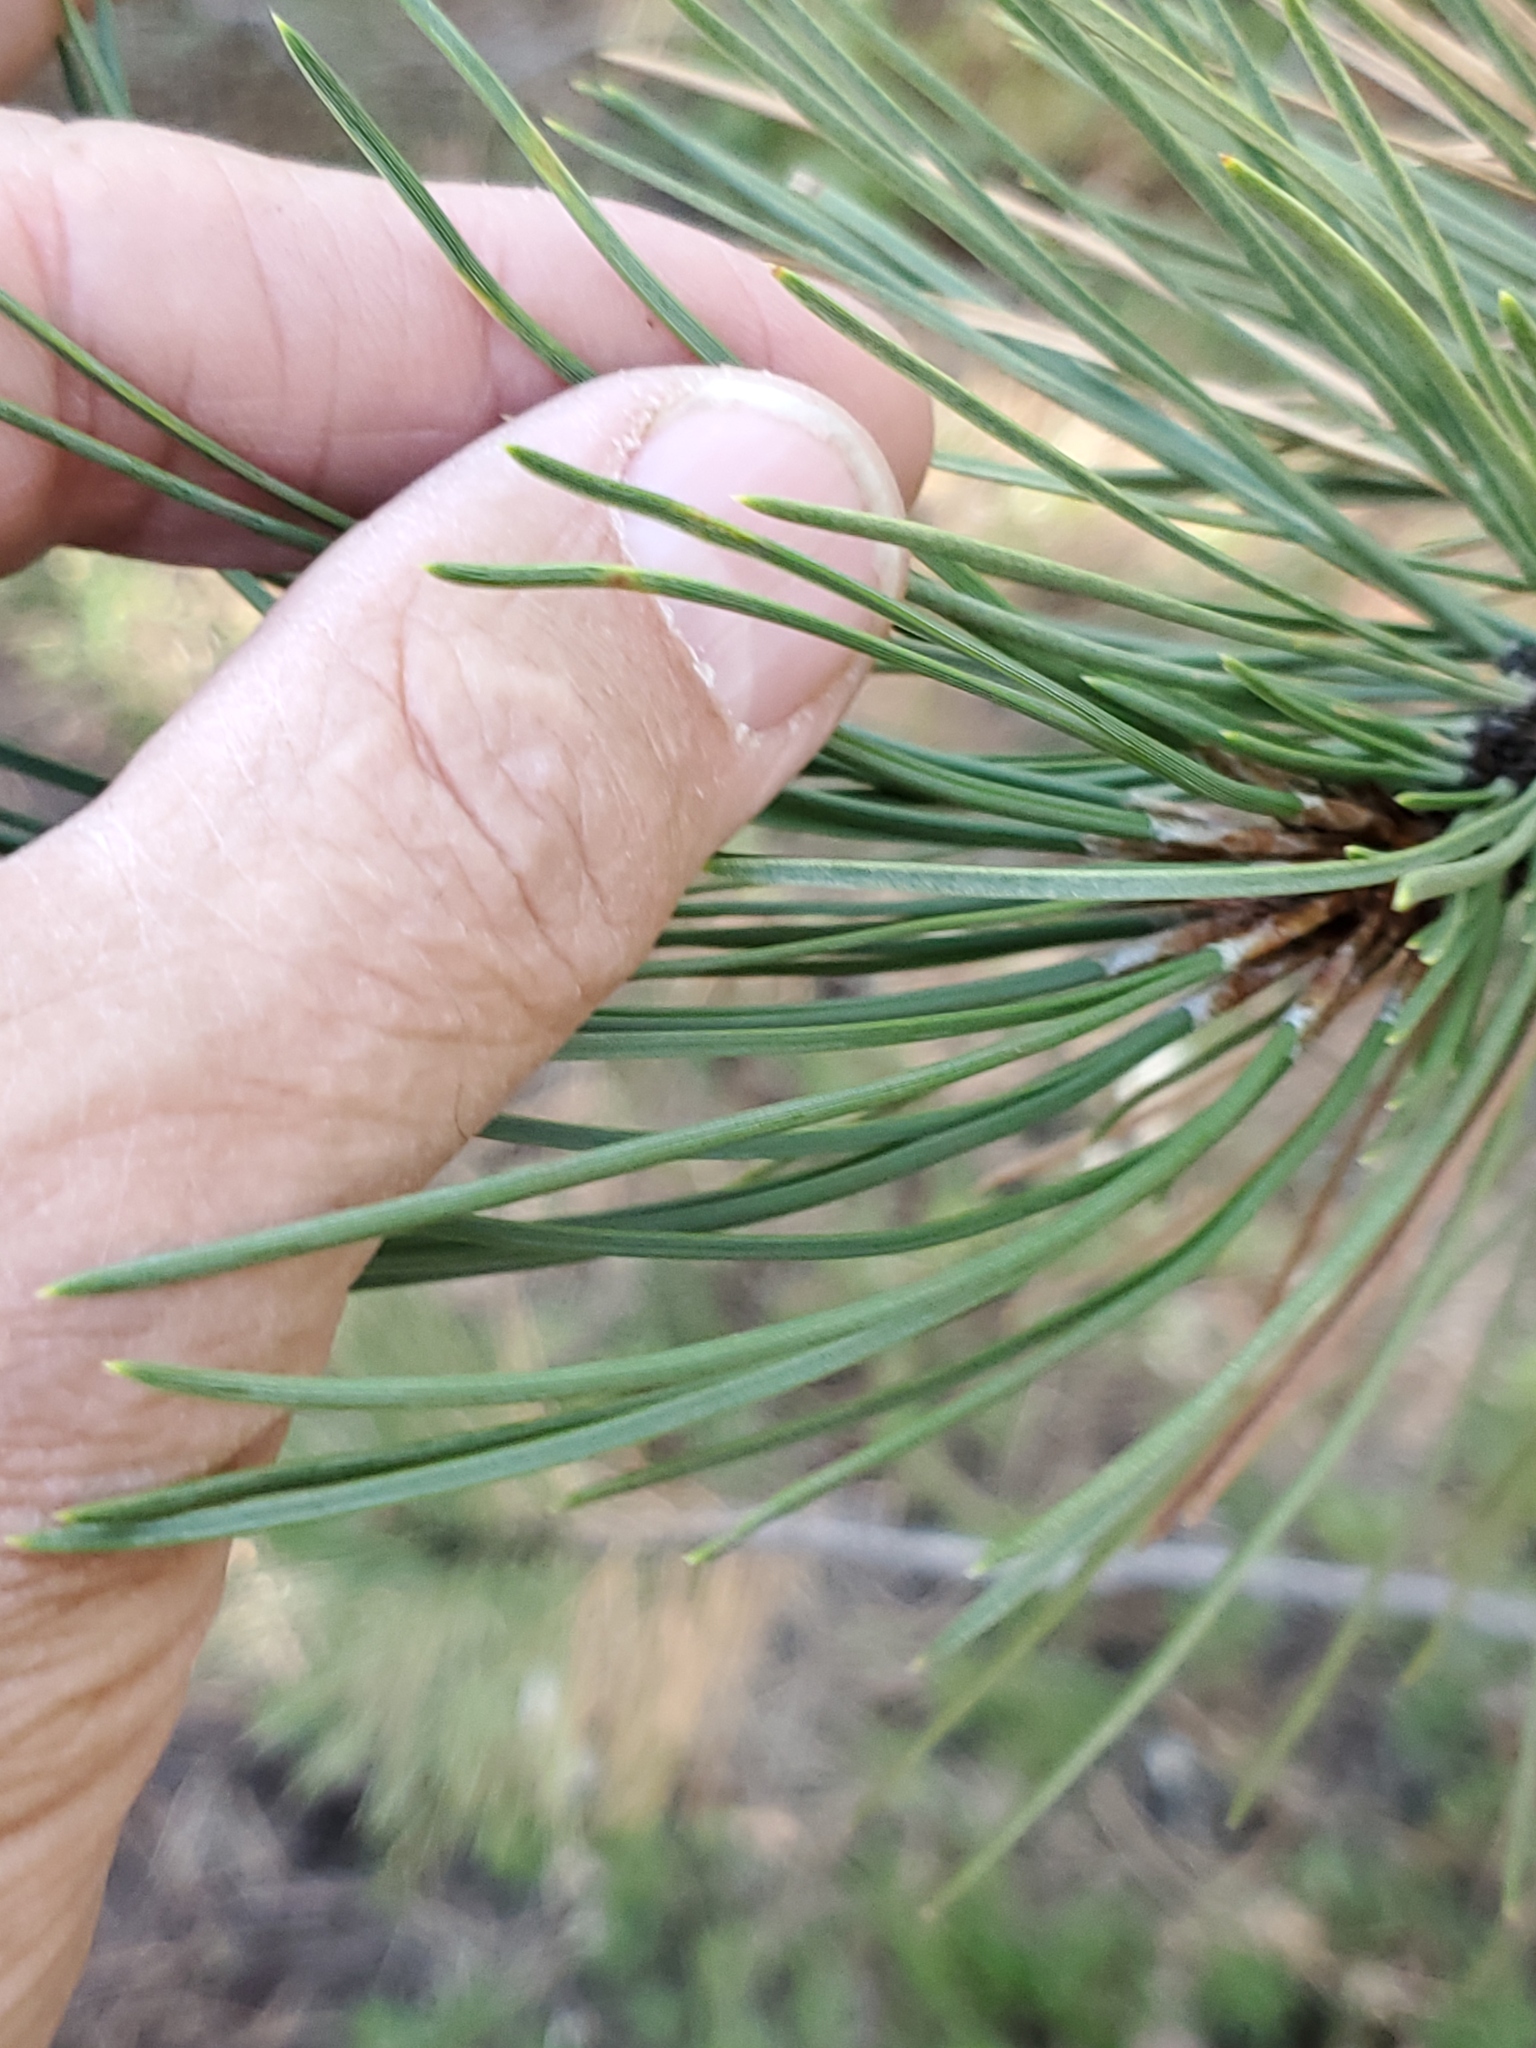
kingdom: Plantae
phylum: Tracheophyta
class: Pinopsida
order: Pinales
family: Pinaceae
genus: Pinus
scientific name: Pinus contorta
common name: Lodgepole pine
